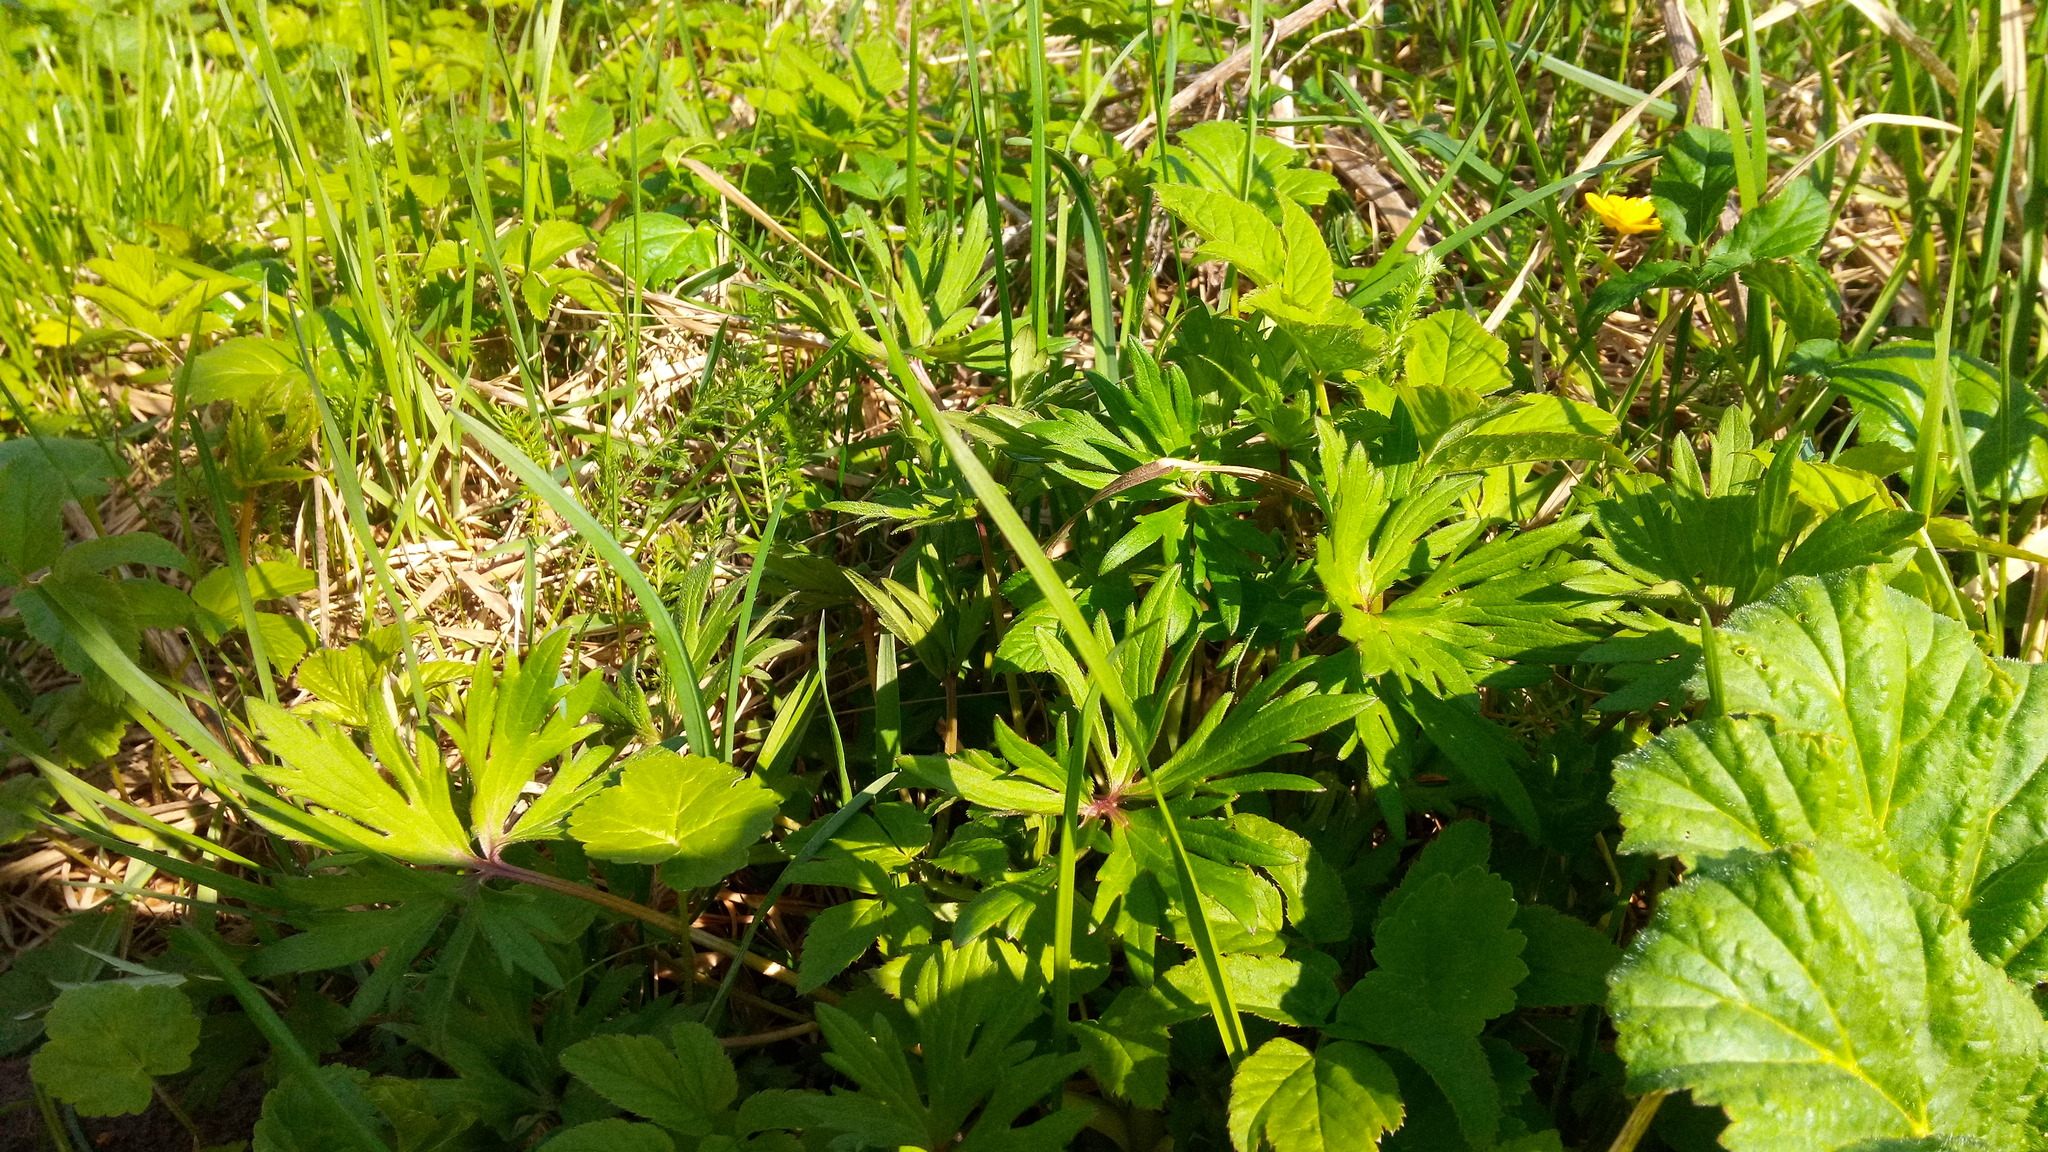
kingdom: Plantae
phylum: Tracheophyta
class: Magnoliopsida
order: Ranunculales
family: Ranunculaceae
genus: Ranunculus
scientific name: Ranunculus acris
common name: Meadow buttercup
